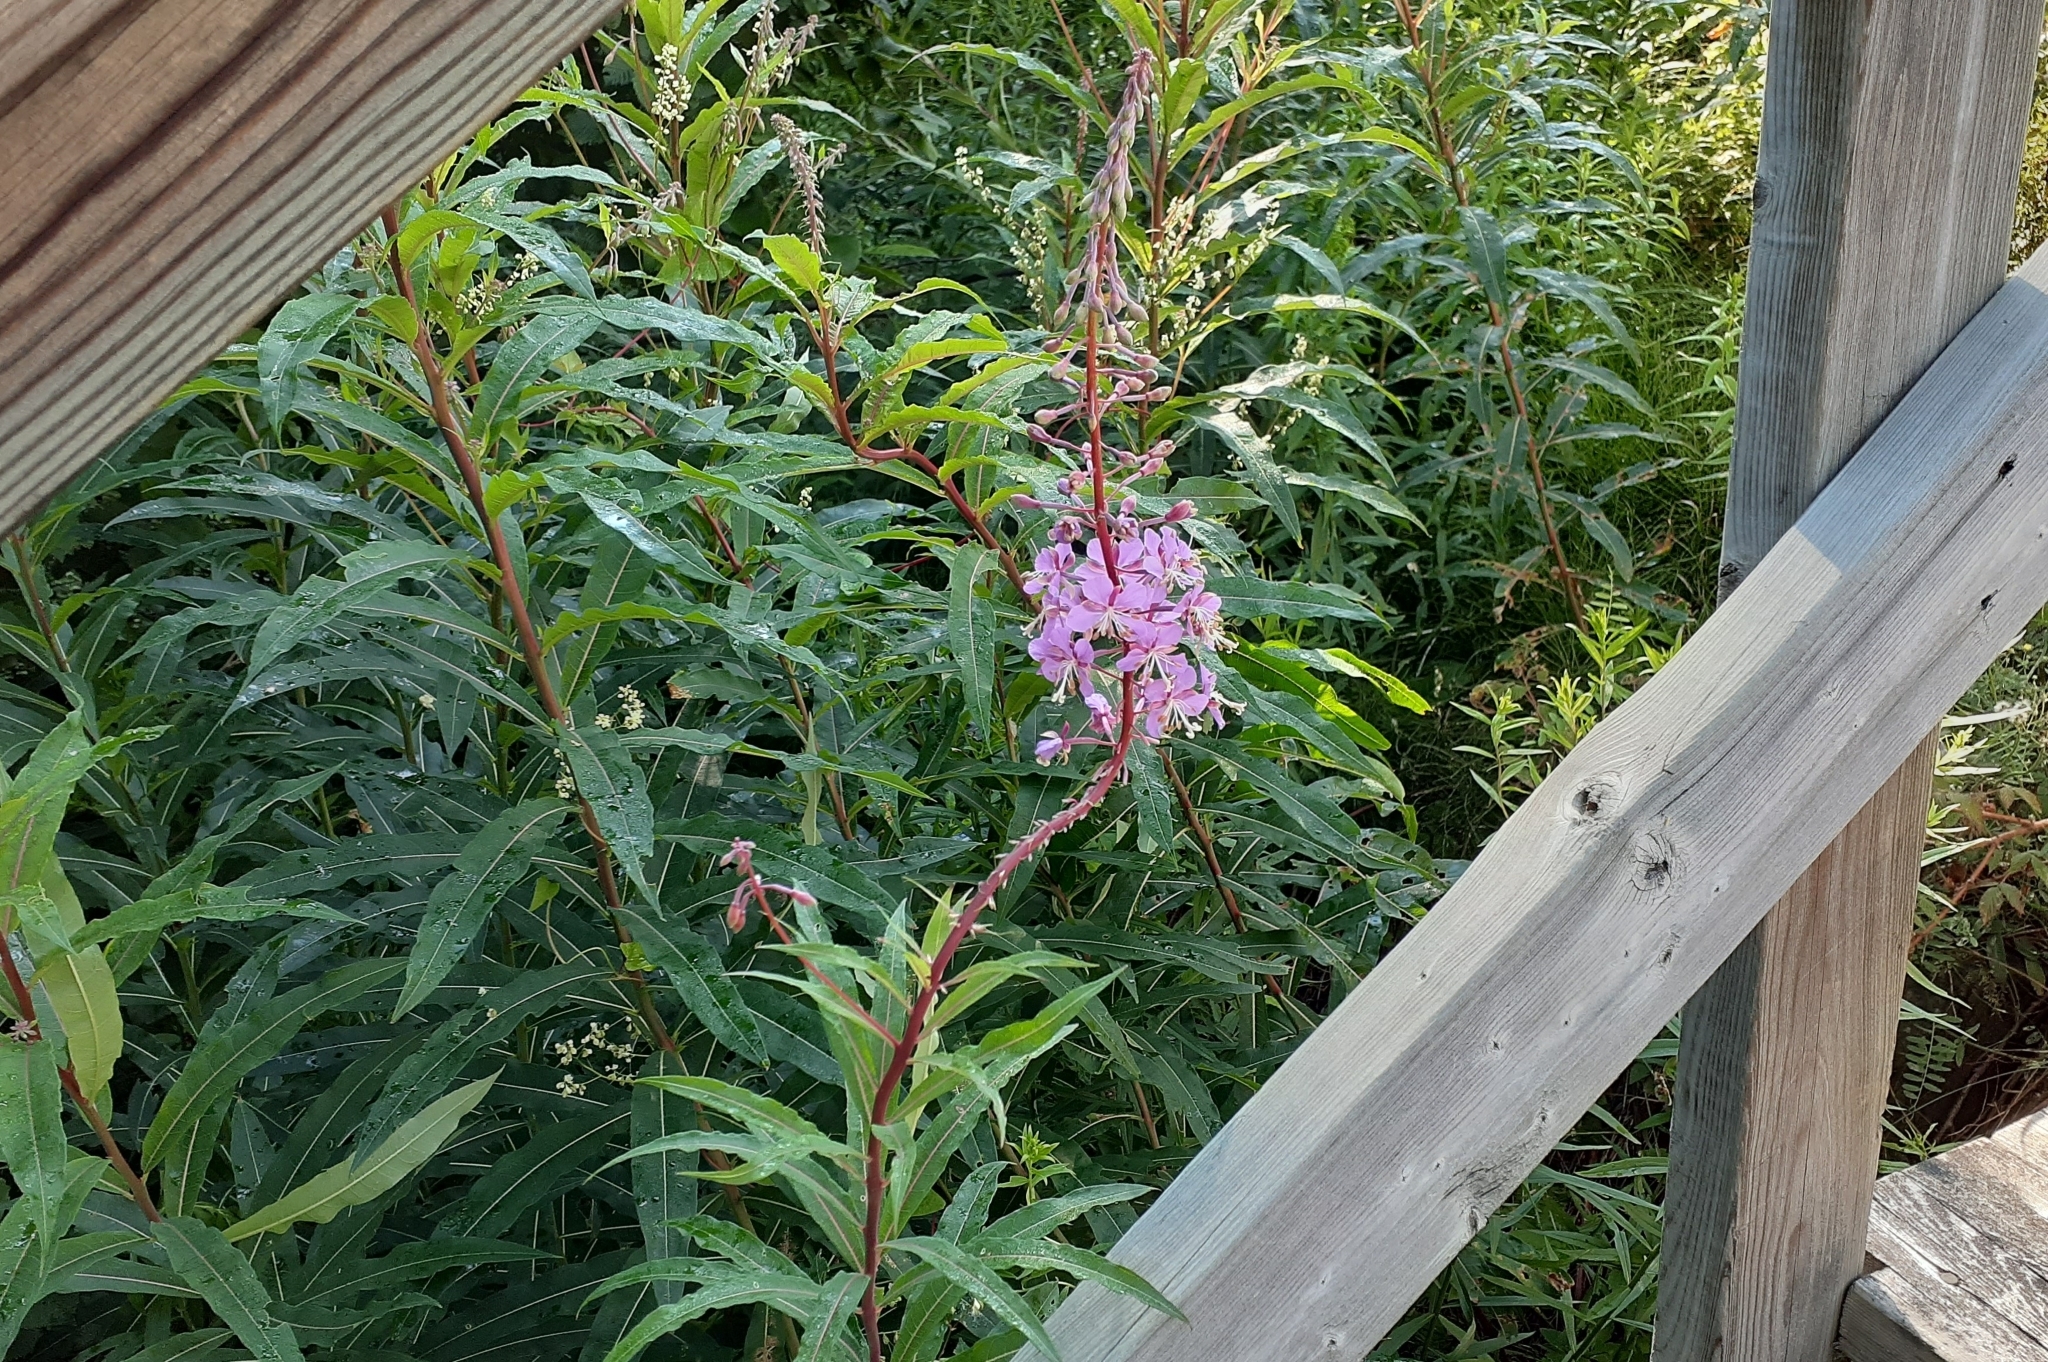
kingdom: Plantae
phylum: Tracheophyta
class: Magnoliopsida
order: Myrtales
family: Onagraceae
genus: Chamaenerion
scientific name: Chamaenerion angustifolium
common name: Fireweed
